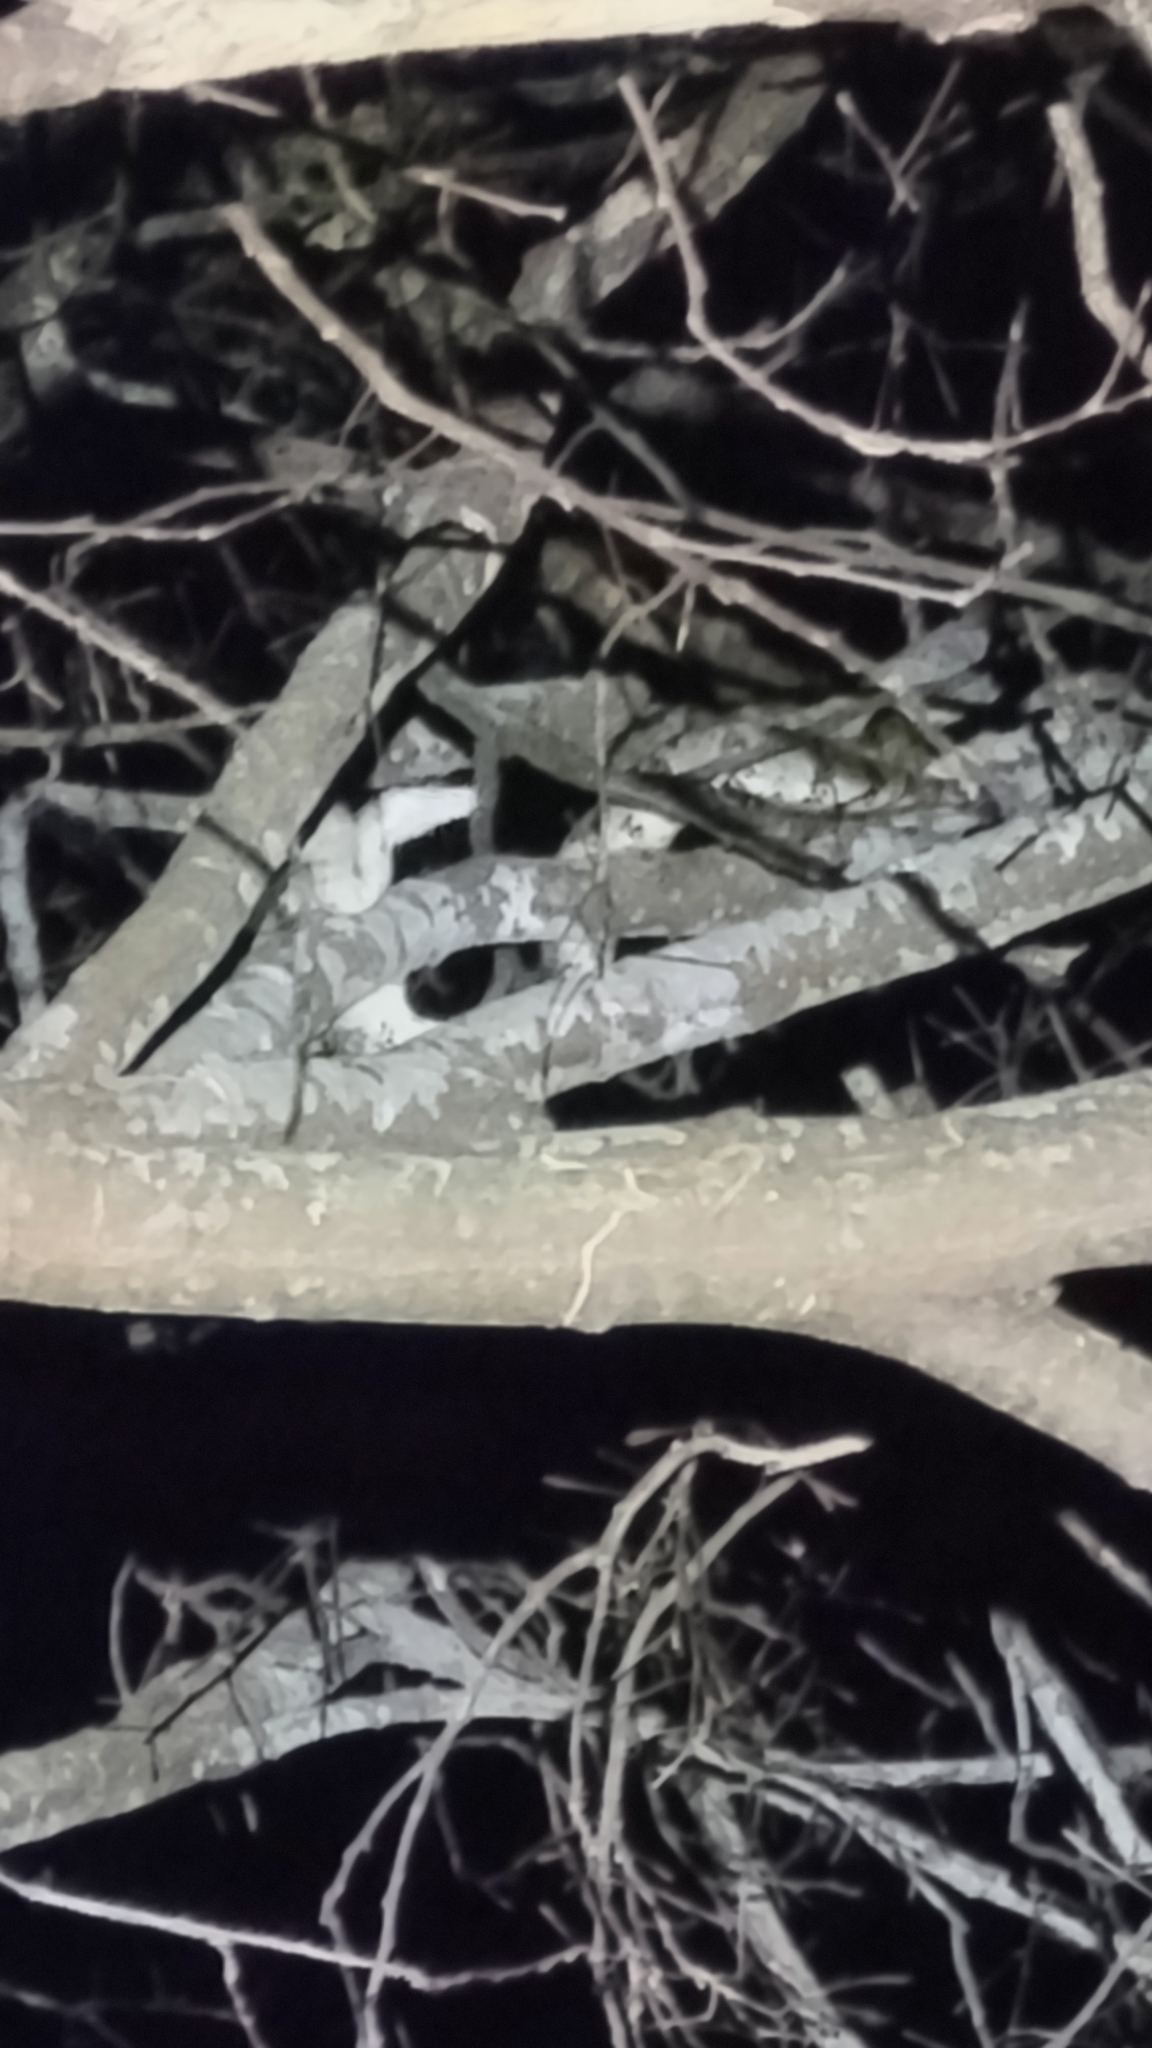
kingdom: Animalia
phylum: Chordata
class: Squamata
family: Boidae
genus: Boa
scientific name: Boa imperator
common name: Central american boa
